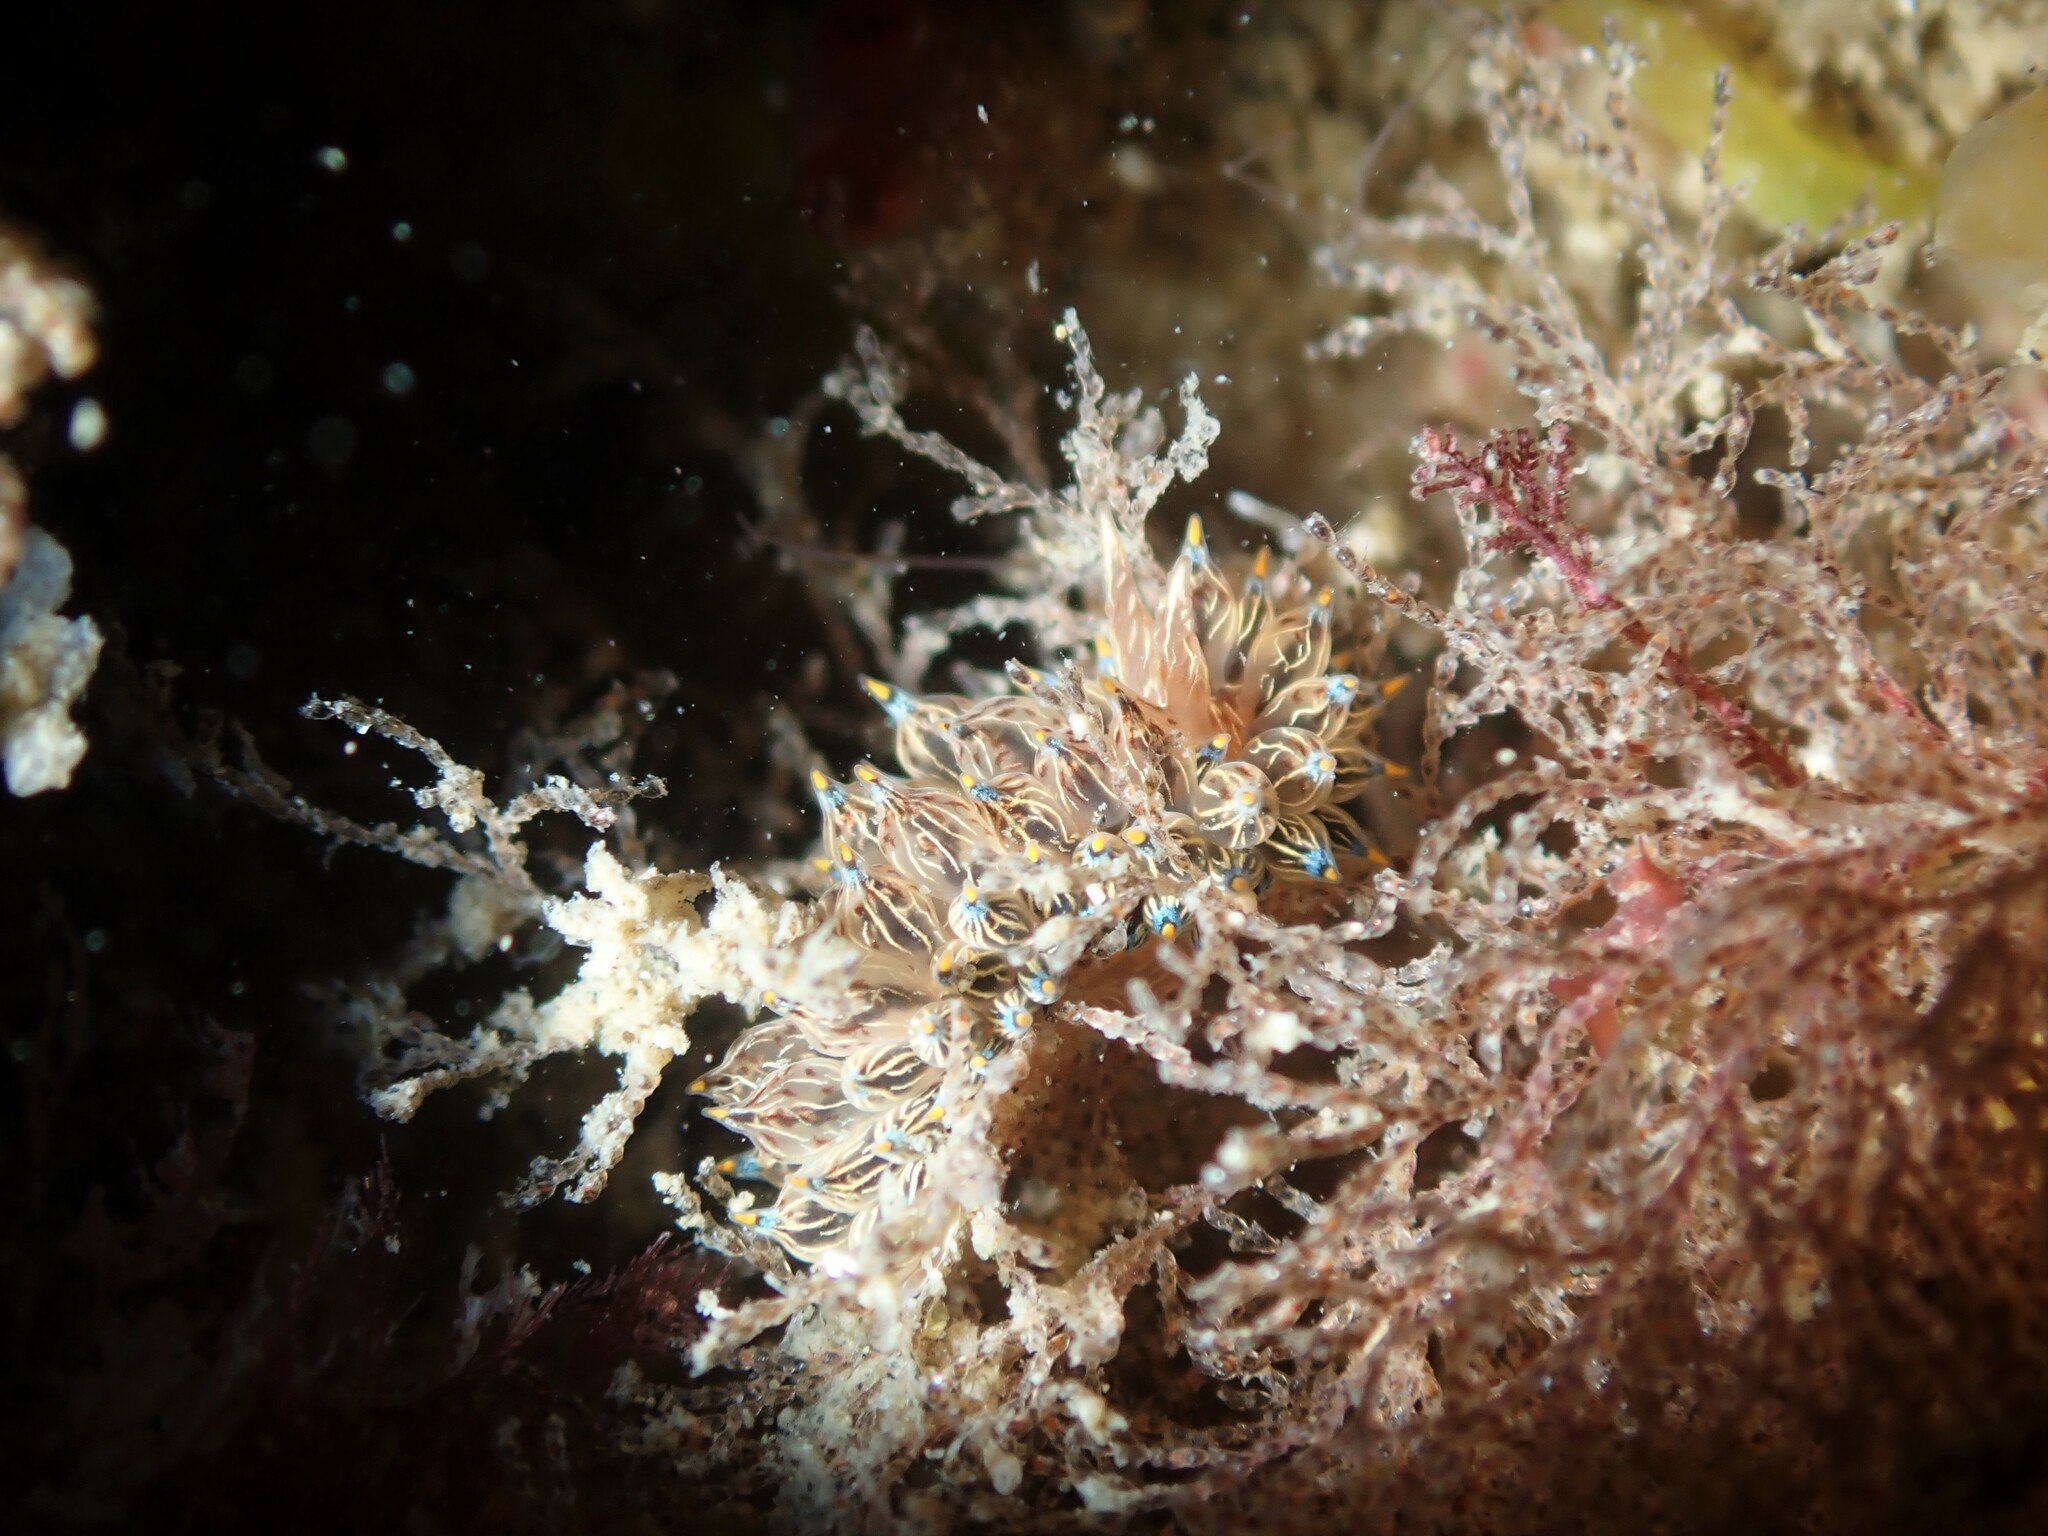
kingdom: Animalia
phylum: Mollusca
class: Gastropoda
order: Nudibranchia
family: Janolidae
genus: Janolus
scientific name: Janolus eximius
